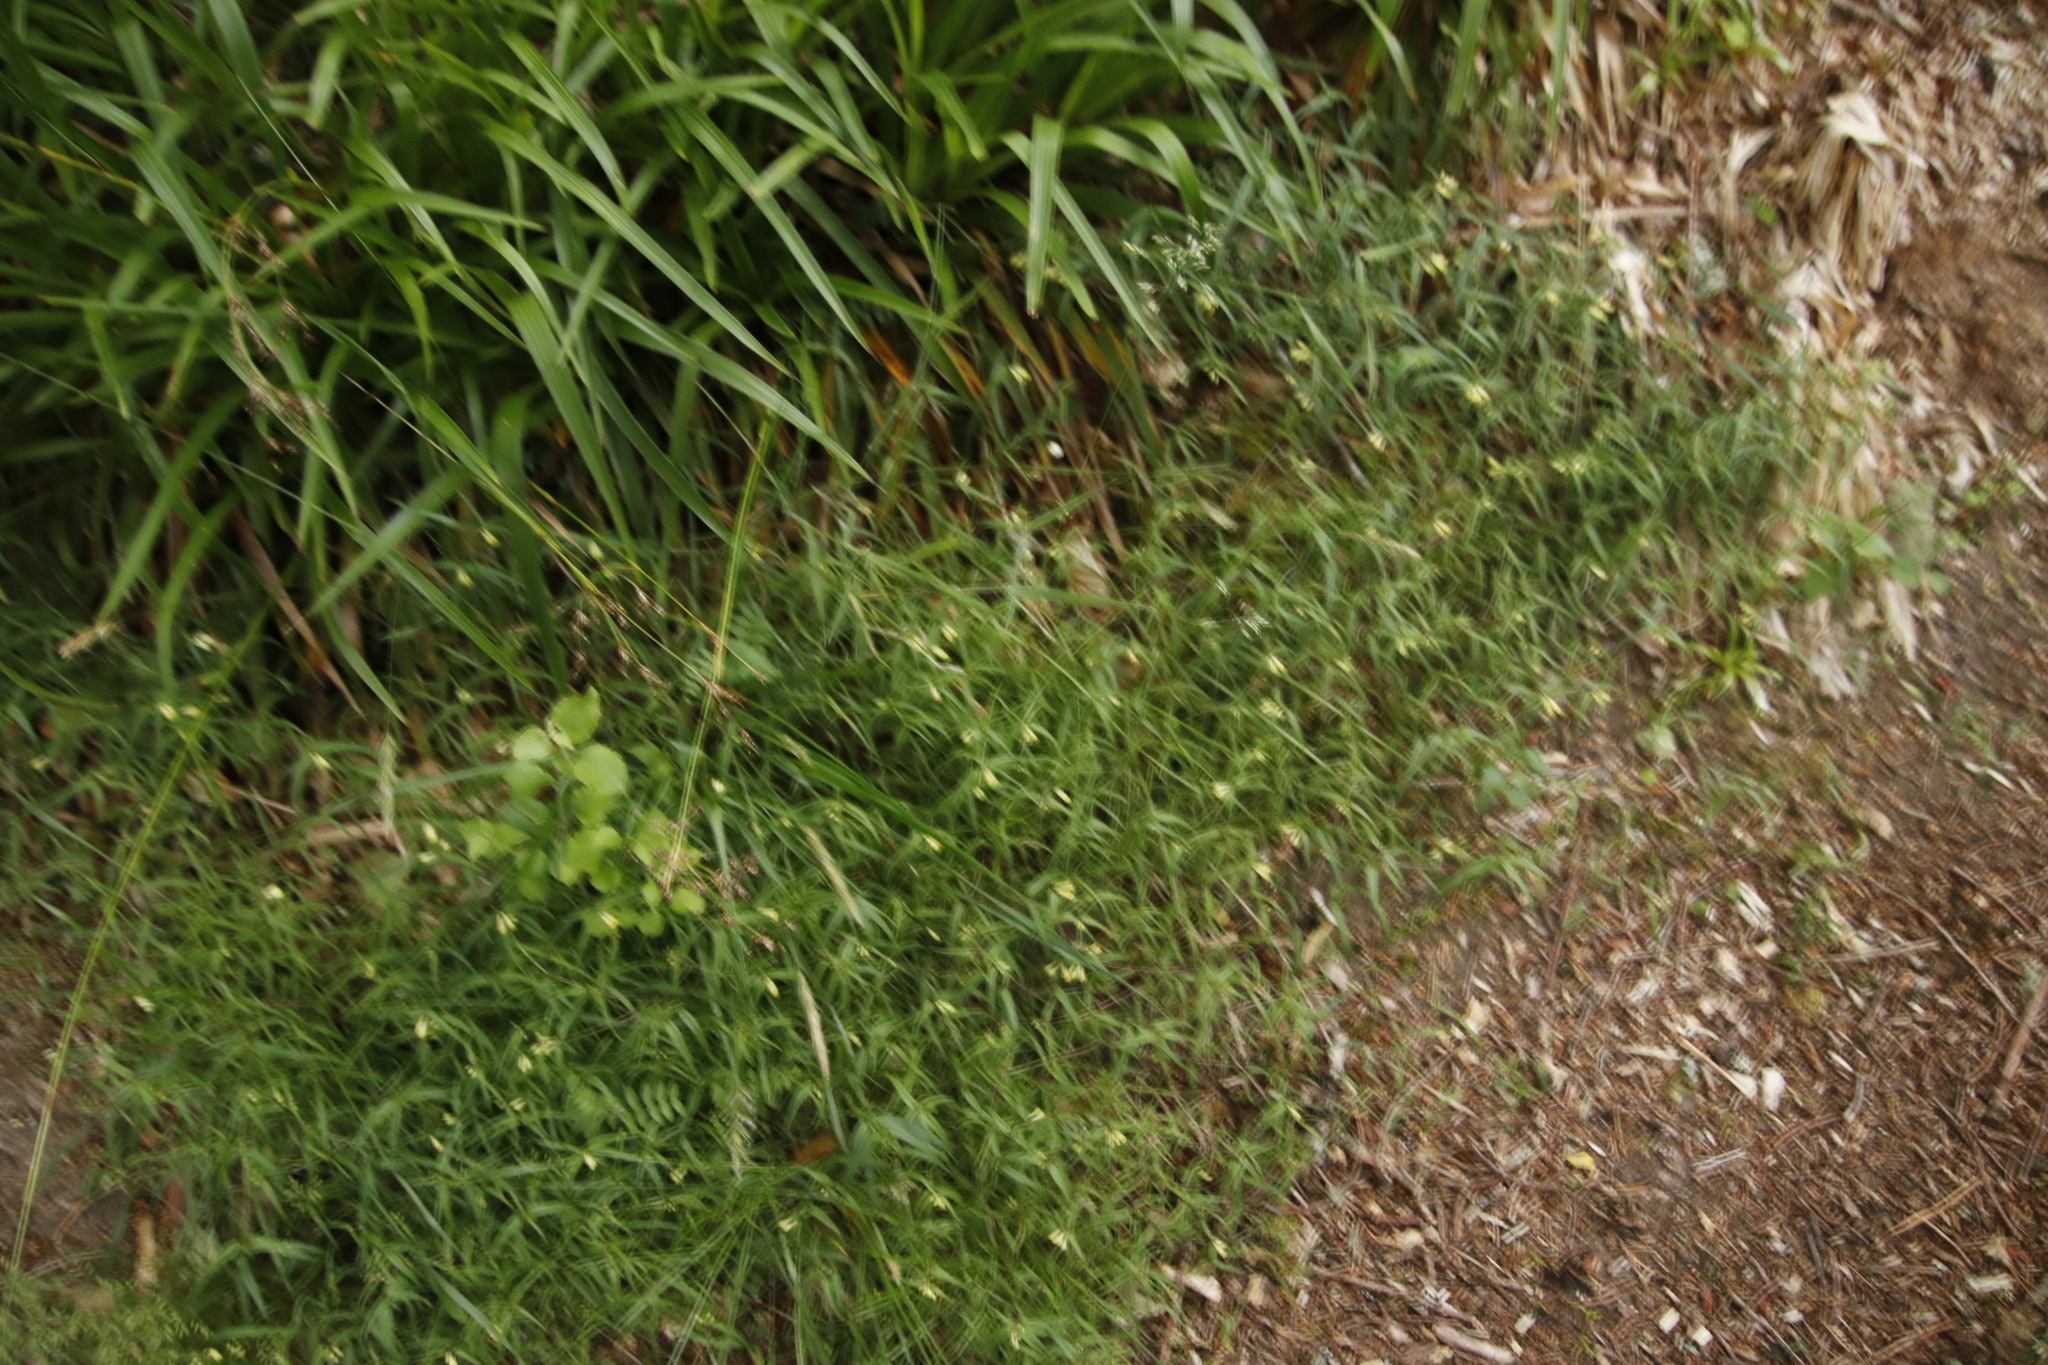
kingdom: Plantae
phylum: Tracheophyta
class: Magnoliopsida
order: Lamiales
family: Orobanchaceae
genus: Melampyrum
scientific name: Melampyrum pratense
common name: Common cow-wheat
